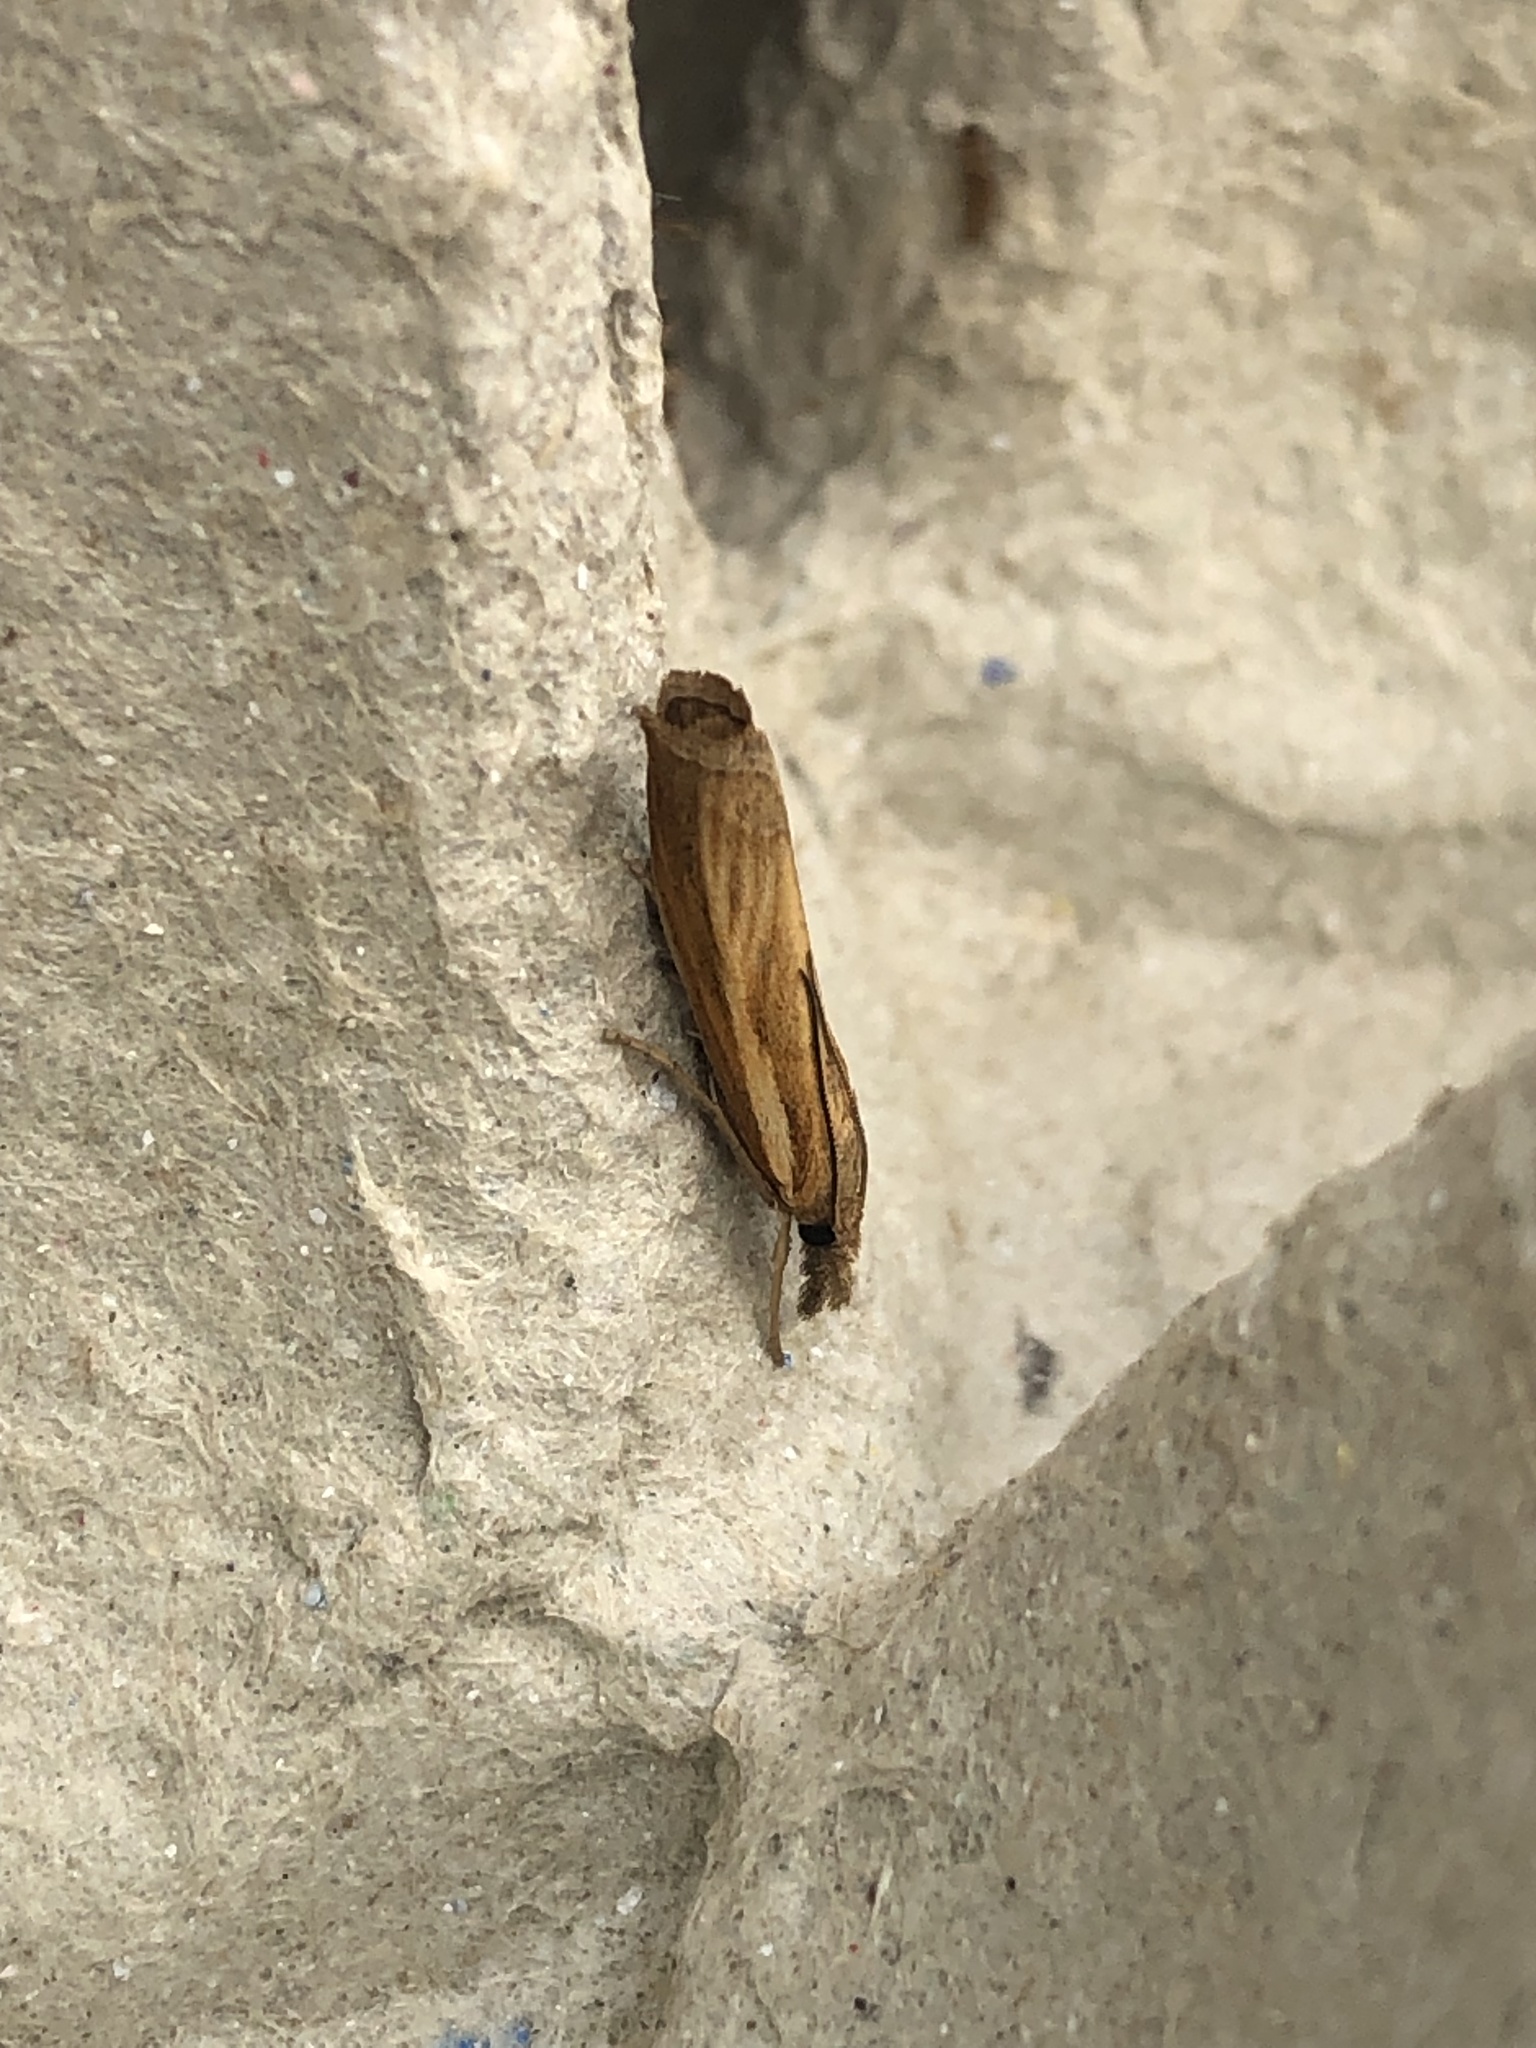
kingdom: Animalia
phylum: Arthropoda
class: Insecta
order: Lepidoptera
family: Crambidae
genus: Agriphila
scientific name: Agriphila tristellus
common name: Common grass-veneer
